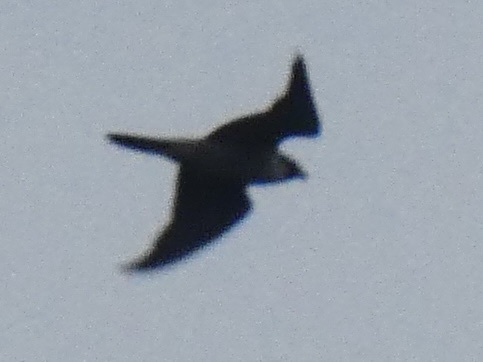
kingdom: Animalia
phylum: Chordata
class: Aves
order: Falconiformes
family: Falconidae
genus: Falco
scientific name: Falco peregrinus
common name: Peregrine falcon
